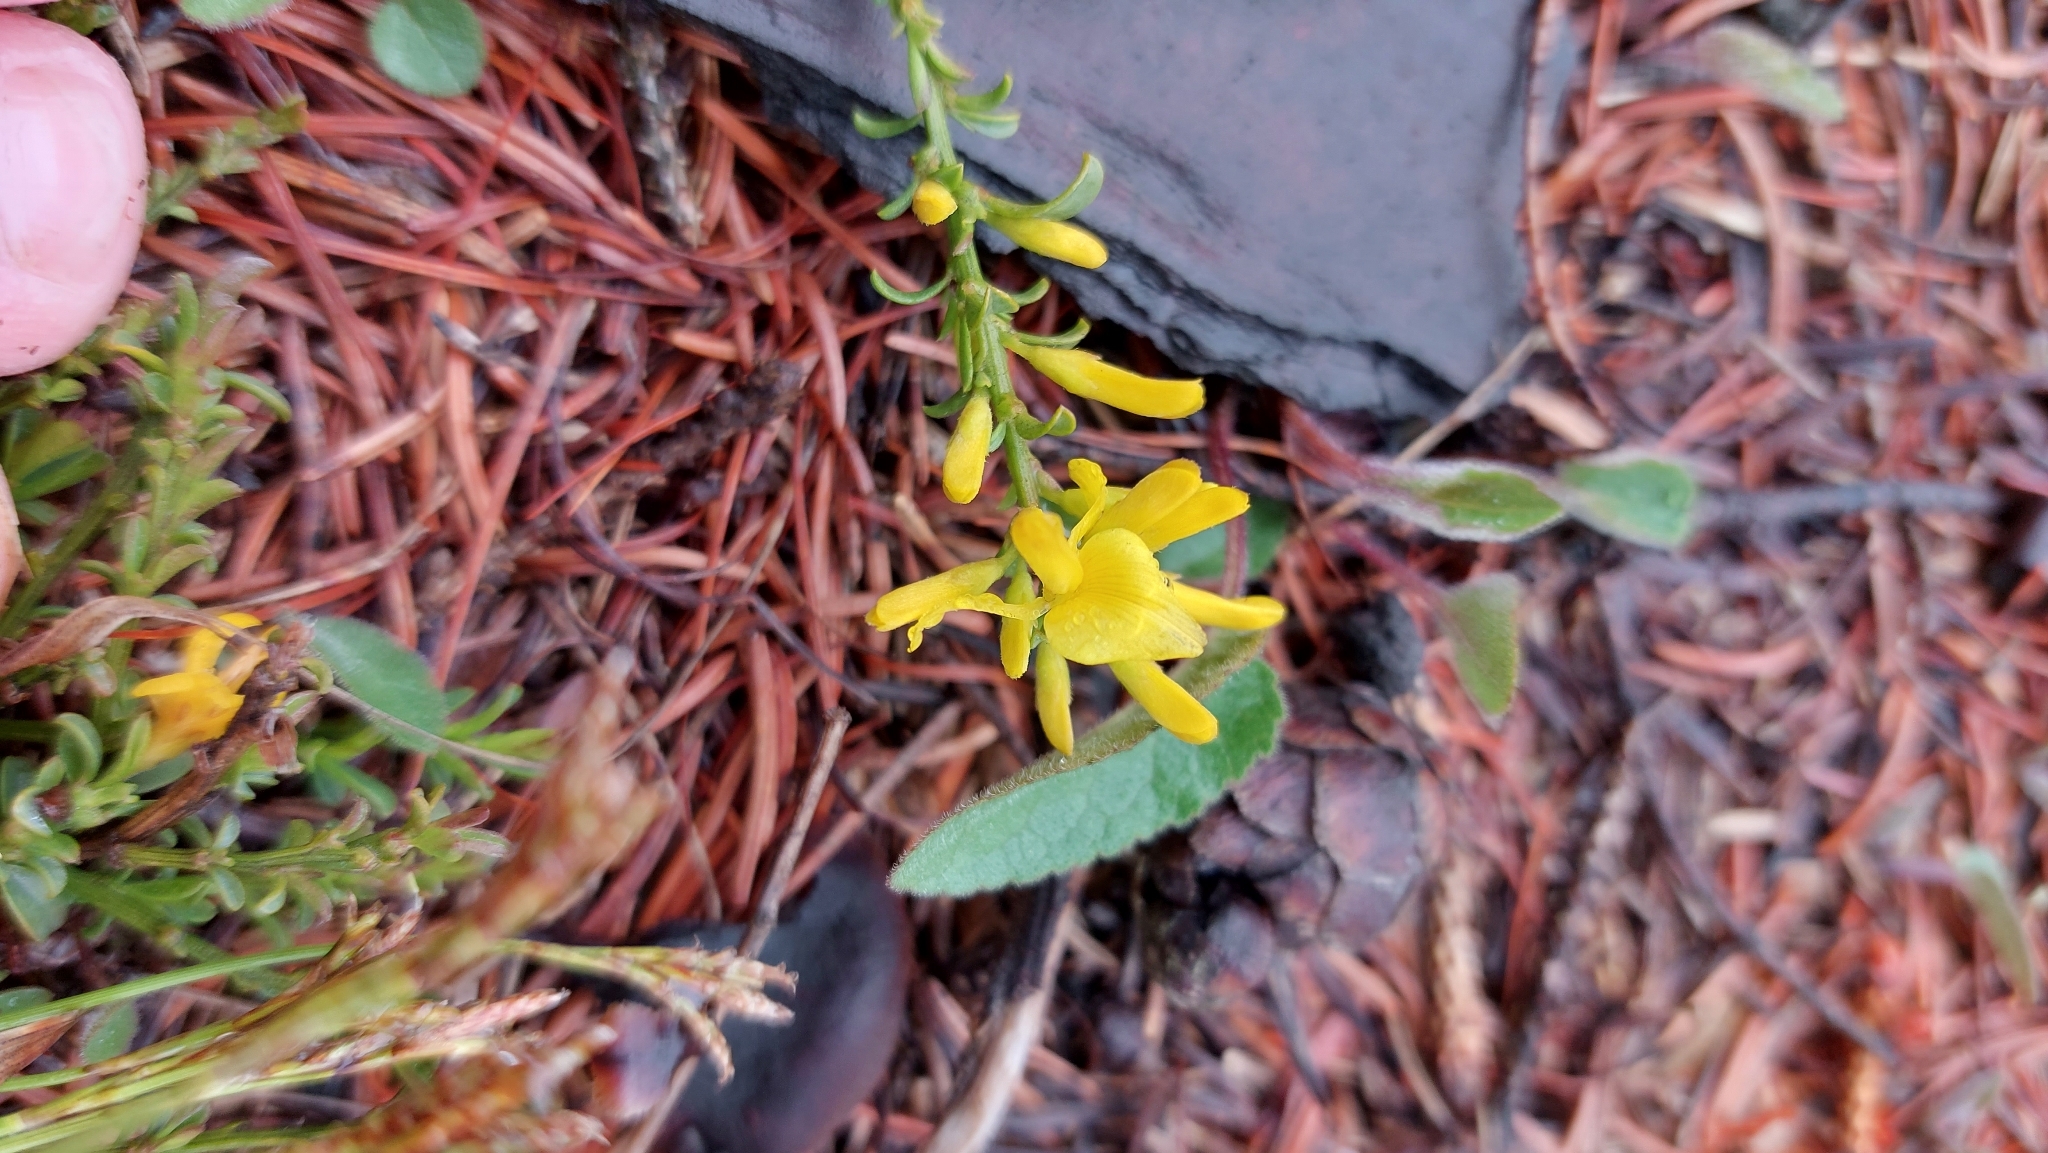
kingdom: Plantae
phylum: Tracheophyta
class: Magnoliopsida
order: Fabales
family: Fabaceae
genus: Genista
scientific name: Genista pilosa
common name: Hairy greenweed
